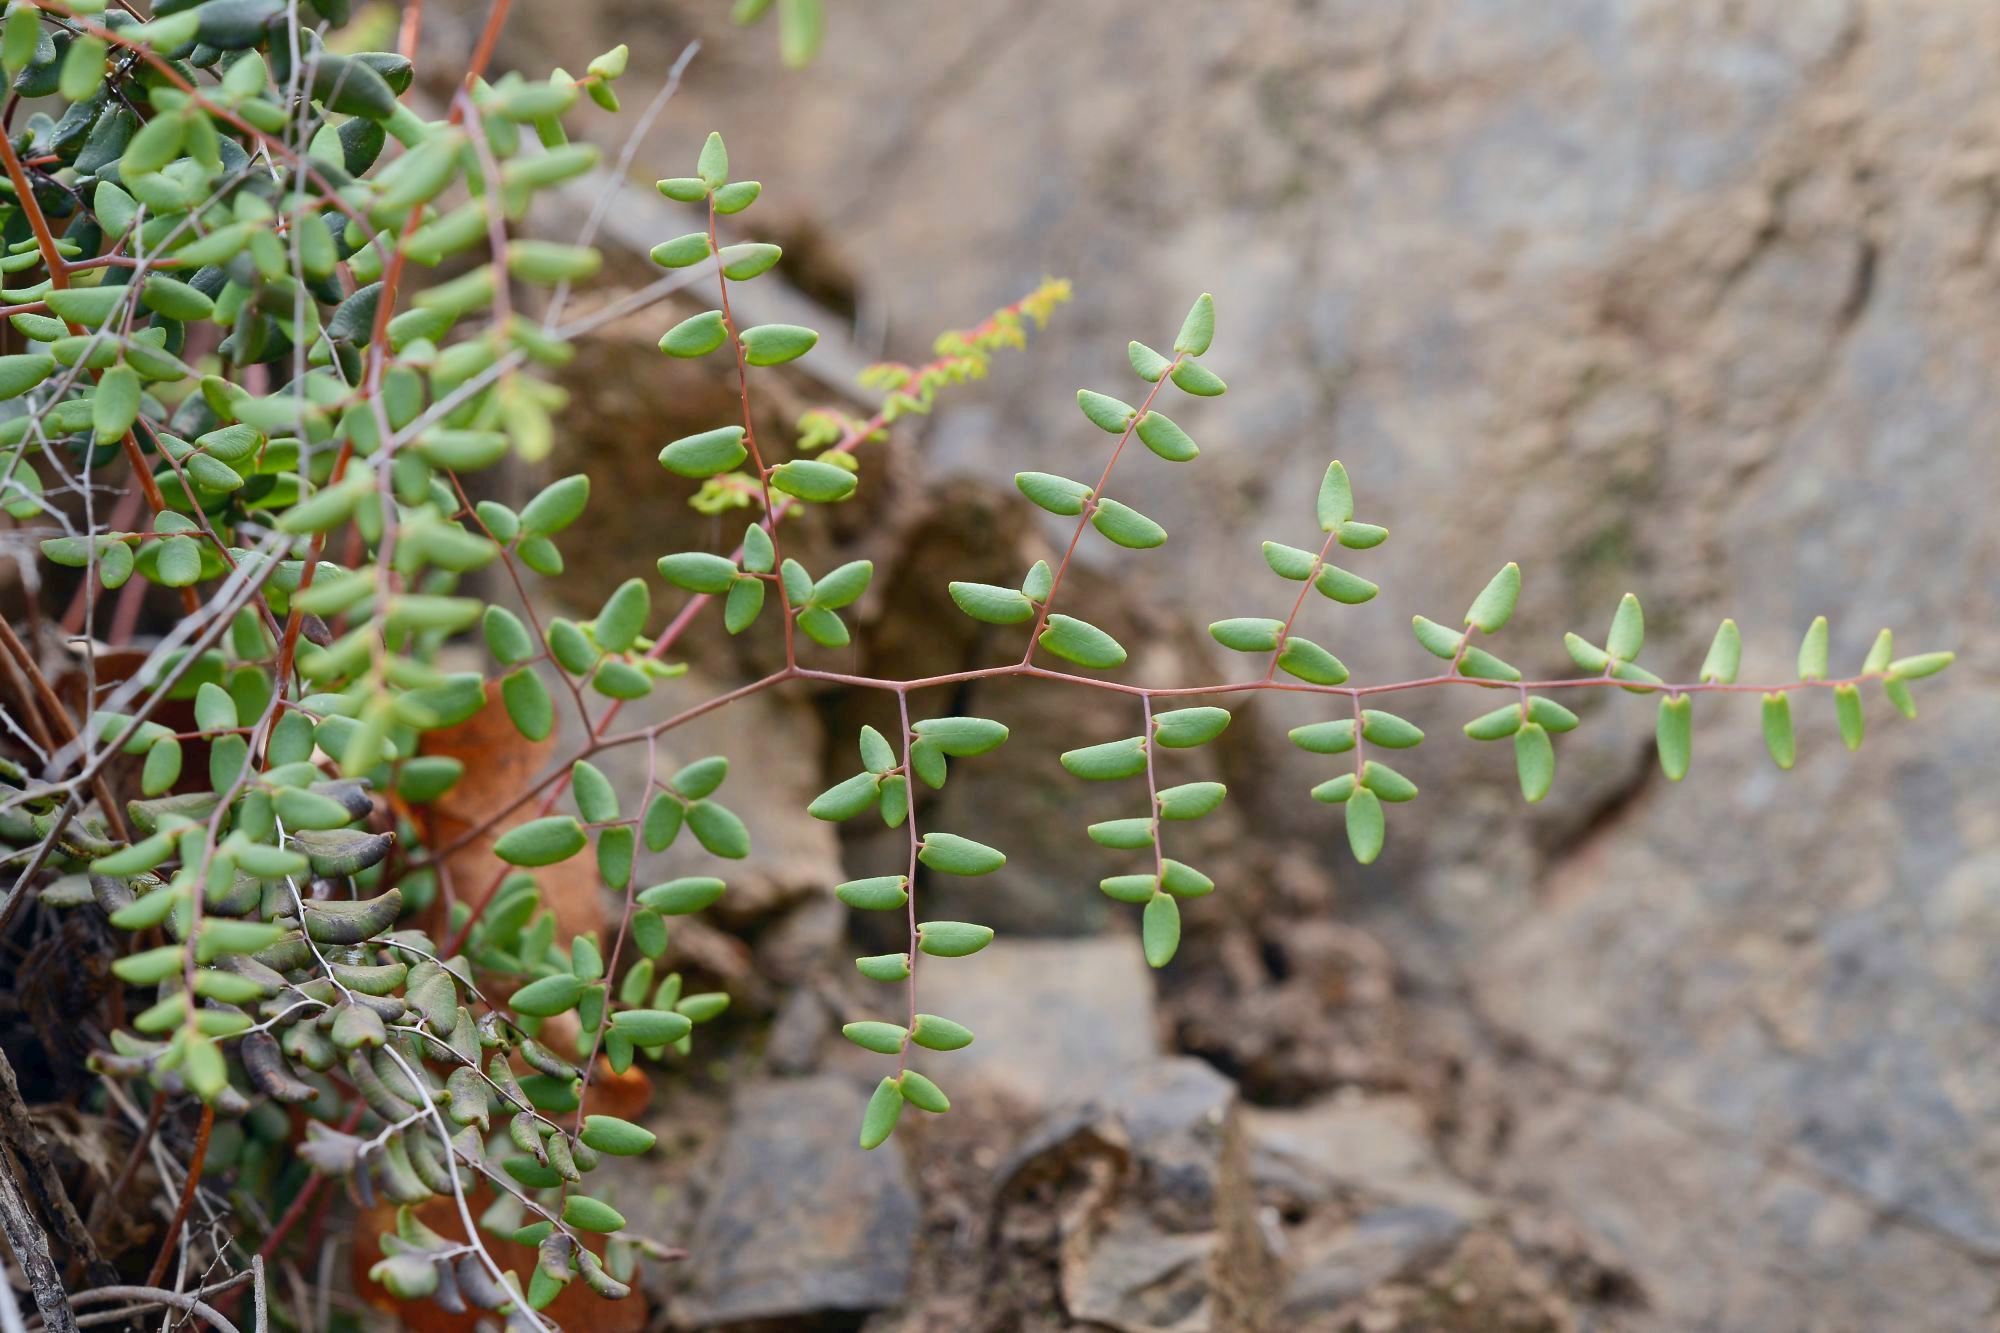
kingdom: Plantae
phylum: Tracheophyta
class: Polypodiopsida
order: Polypodiales
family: Pteridaceae
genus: Pellaea
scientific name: Pellaea andromedifolia
